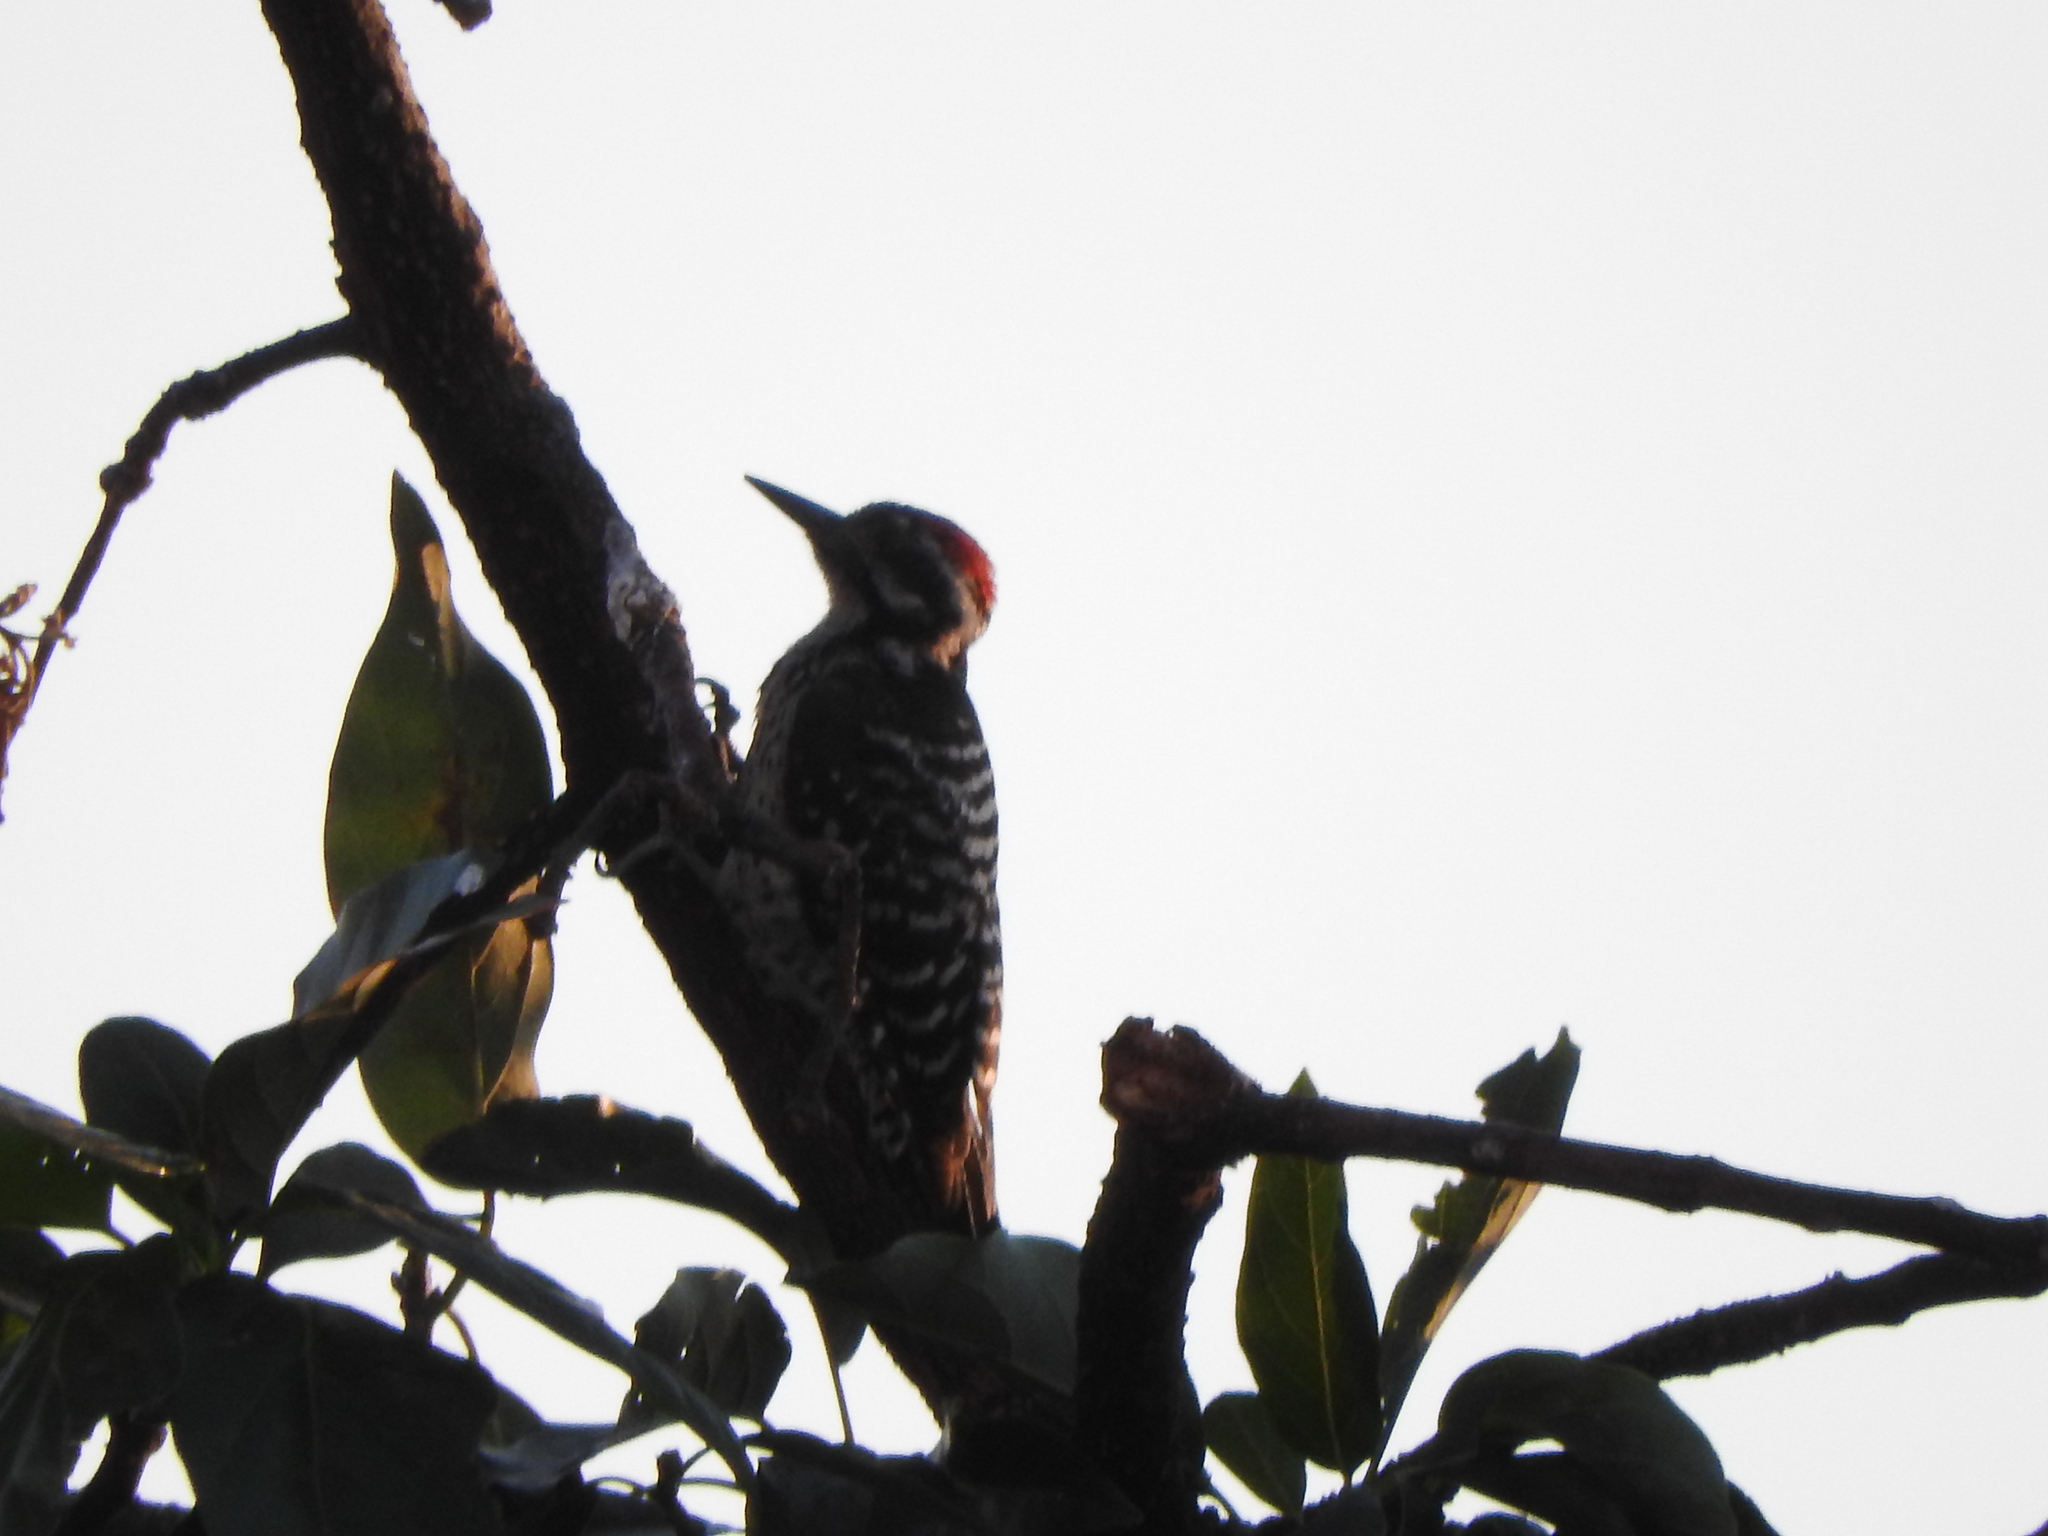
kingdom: Animalia
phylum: Chordata
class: Aves
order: Piciformes
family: Picidae
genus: Dryobates
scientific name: Dryobates scalaris
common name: Ladder-backed woodpecker
